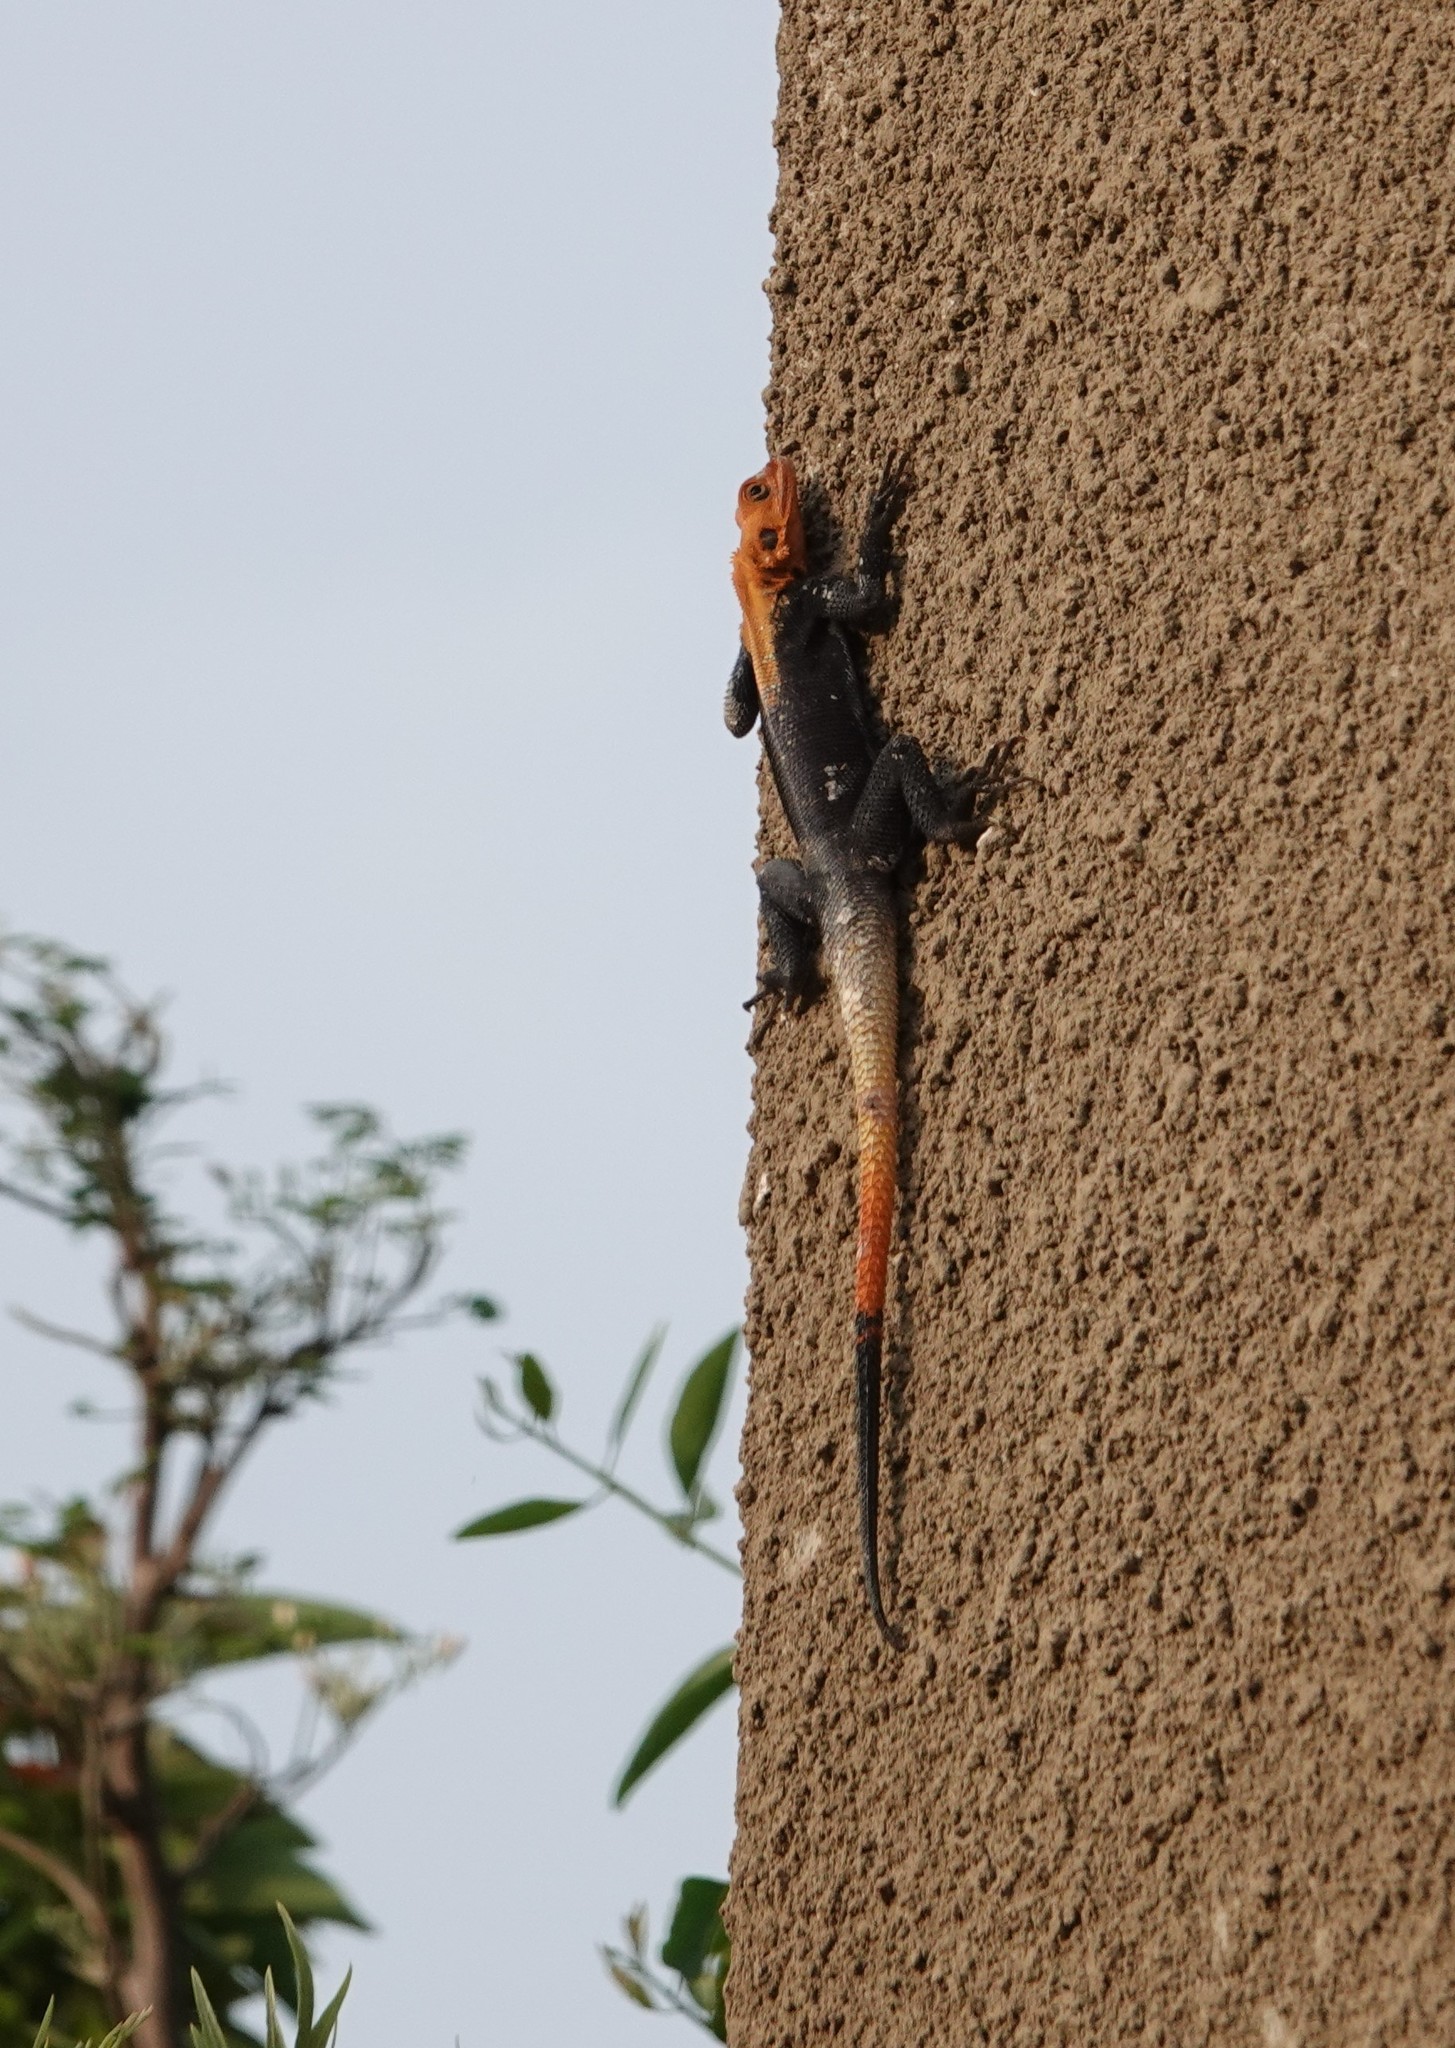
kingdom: Animalia
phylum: Chordata
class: Squamata
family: Agamidae
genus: Agama
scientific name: Agama finchi
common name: Finch’s agama
